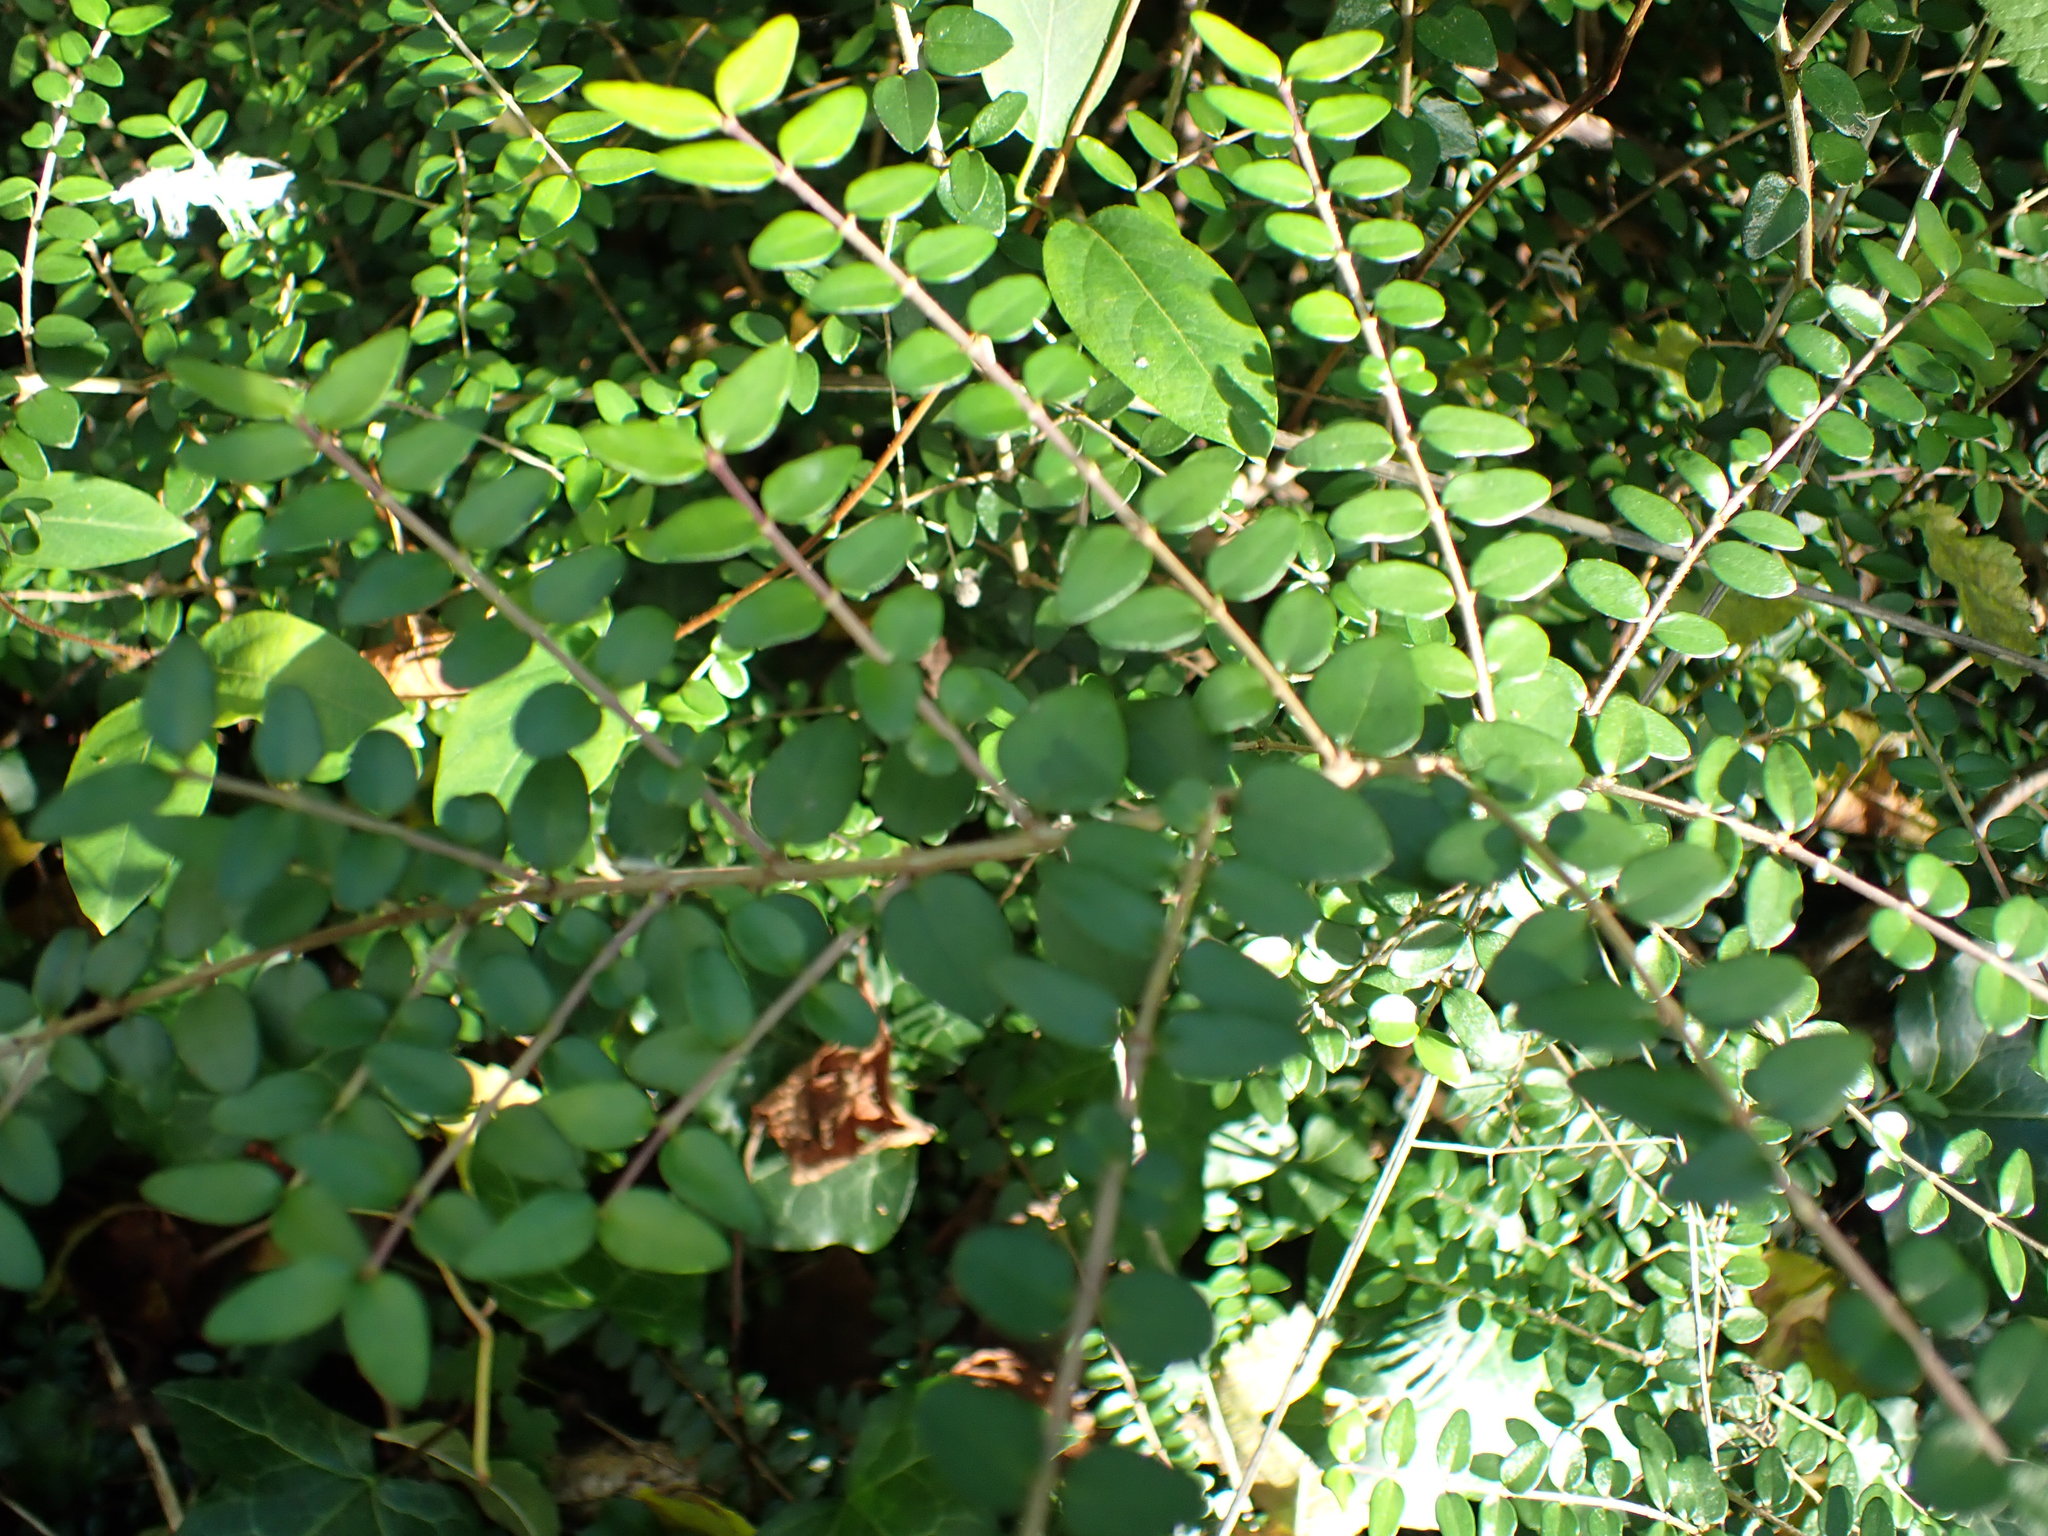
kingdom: Plantae
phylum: Tracheophyta
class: Magnoliopsida
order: Dipsacales
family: Caprifoliaceae
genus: Lonicera
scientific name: Lonicera pileata
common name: Box-leaved honeysuckle
